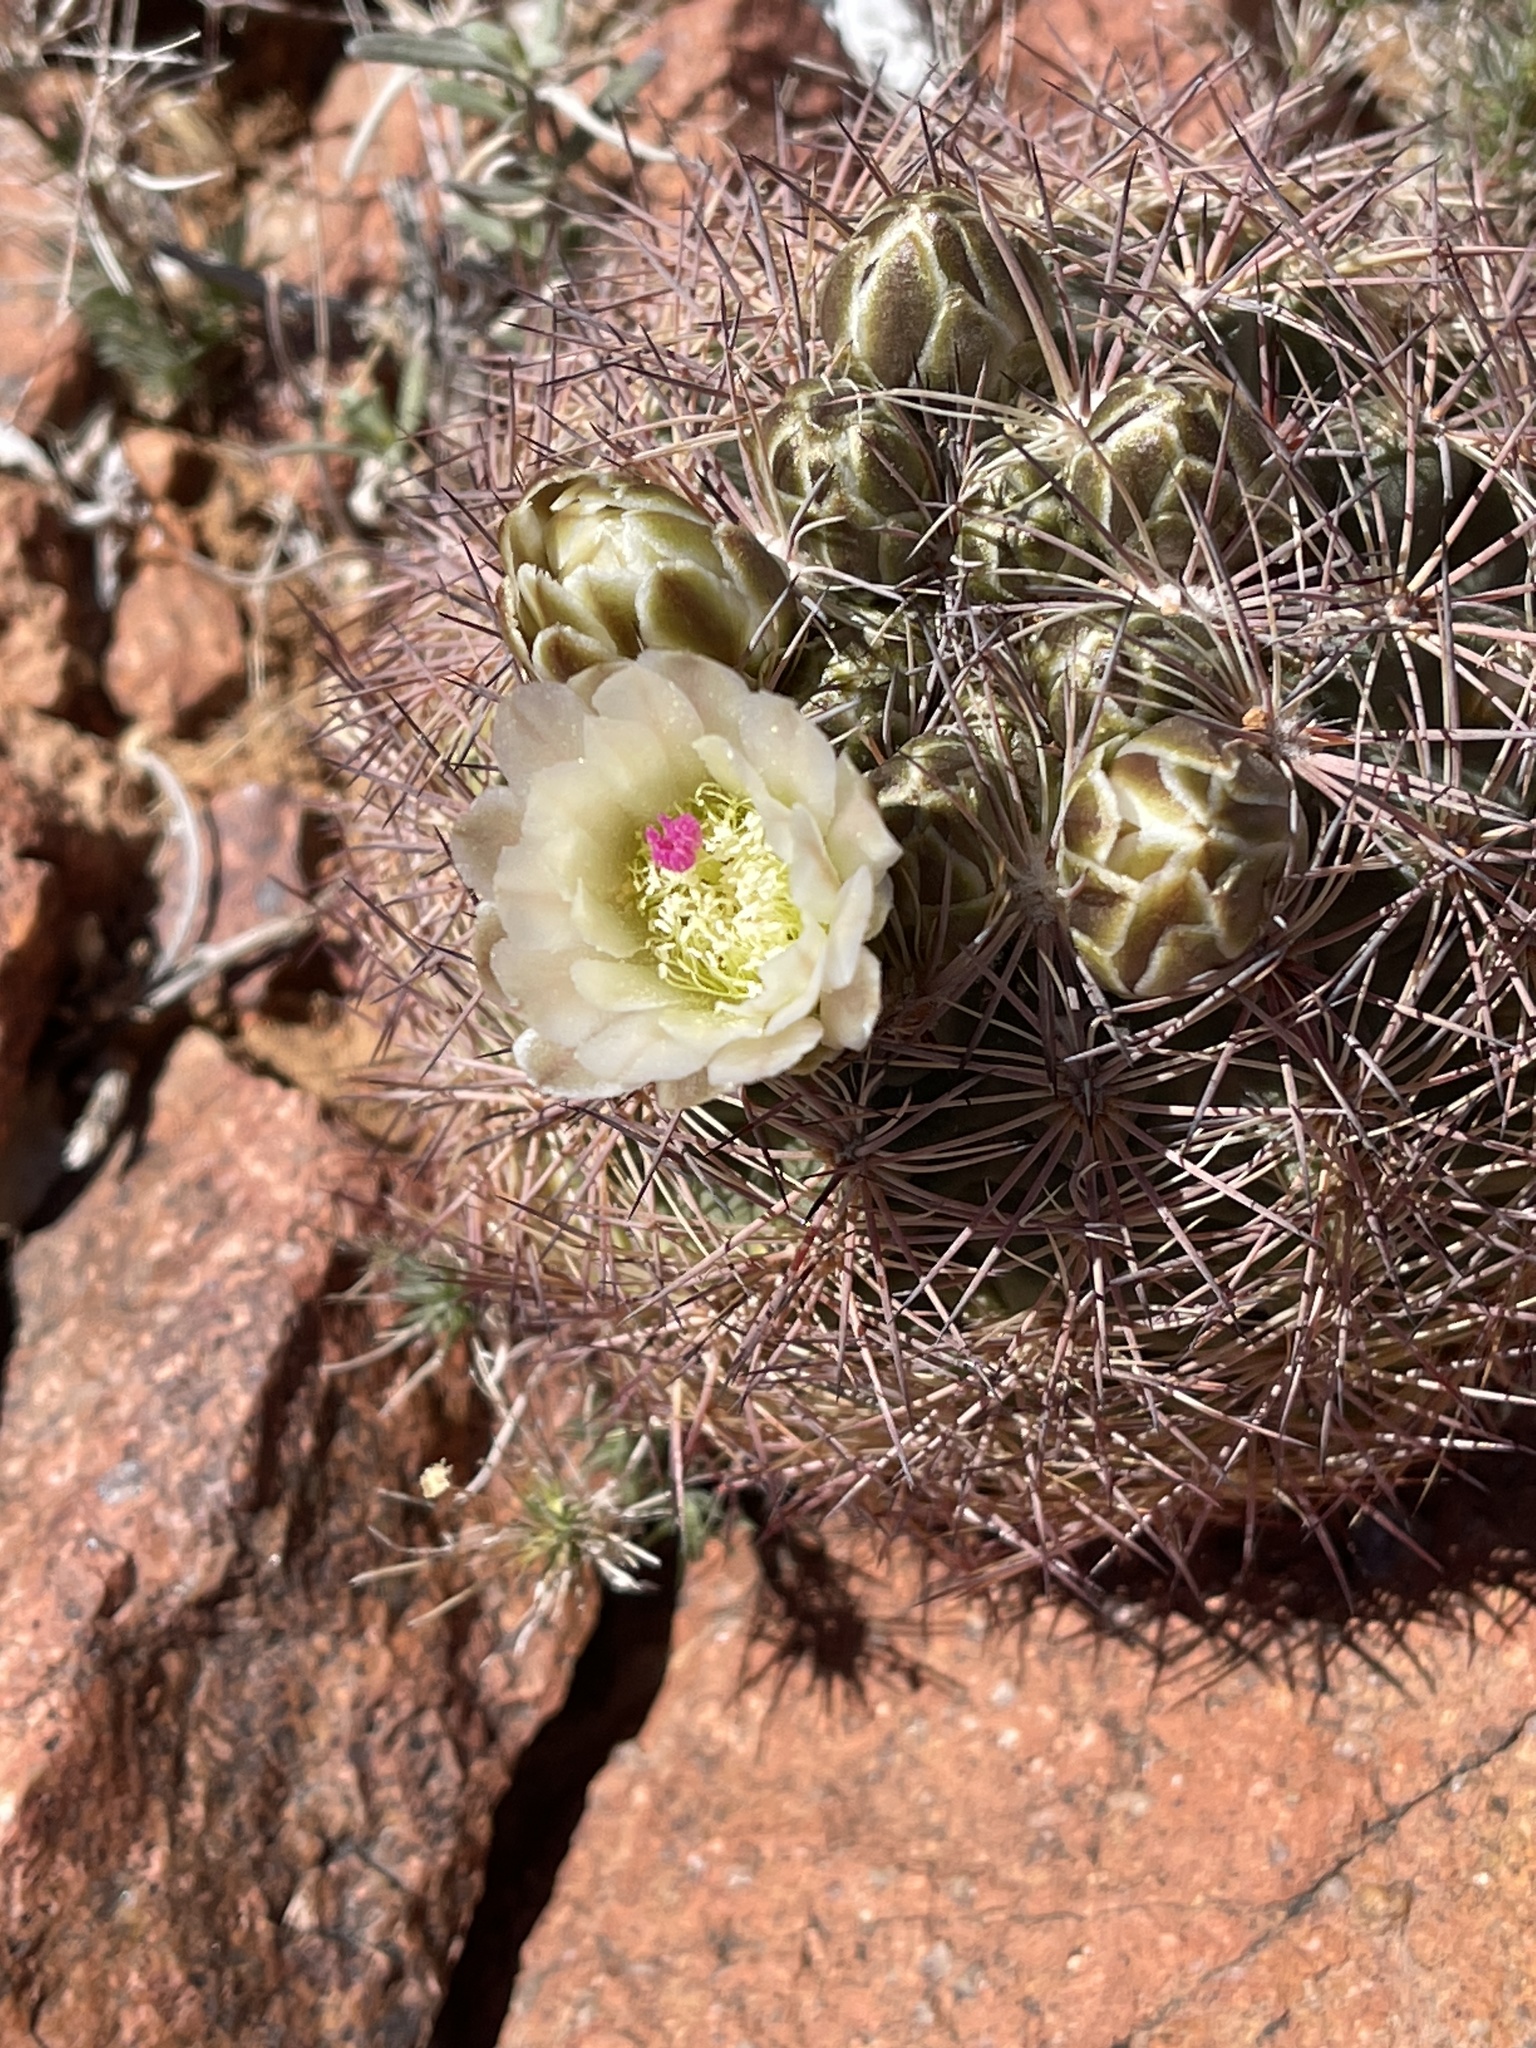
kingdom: Plantae
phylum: Tracheophyta
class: Magnoliopsida
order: Caryophyllales
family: Cactaceae
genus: Sclerocactus
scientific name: Sclerocactus intertextus
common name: White fish-hook cactus
